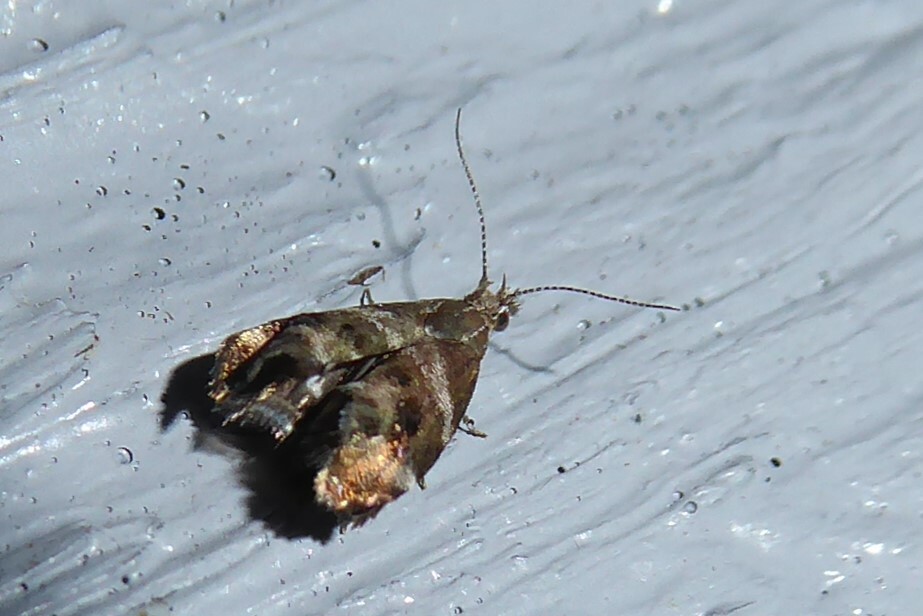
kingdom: Animalia
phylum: Arthropoda
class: Insecta
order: Lepidoptera
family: Choreutidae
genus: Tebenna
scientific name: Tebenna micalis
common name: Vagrant twitcher
